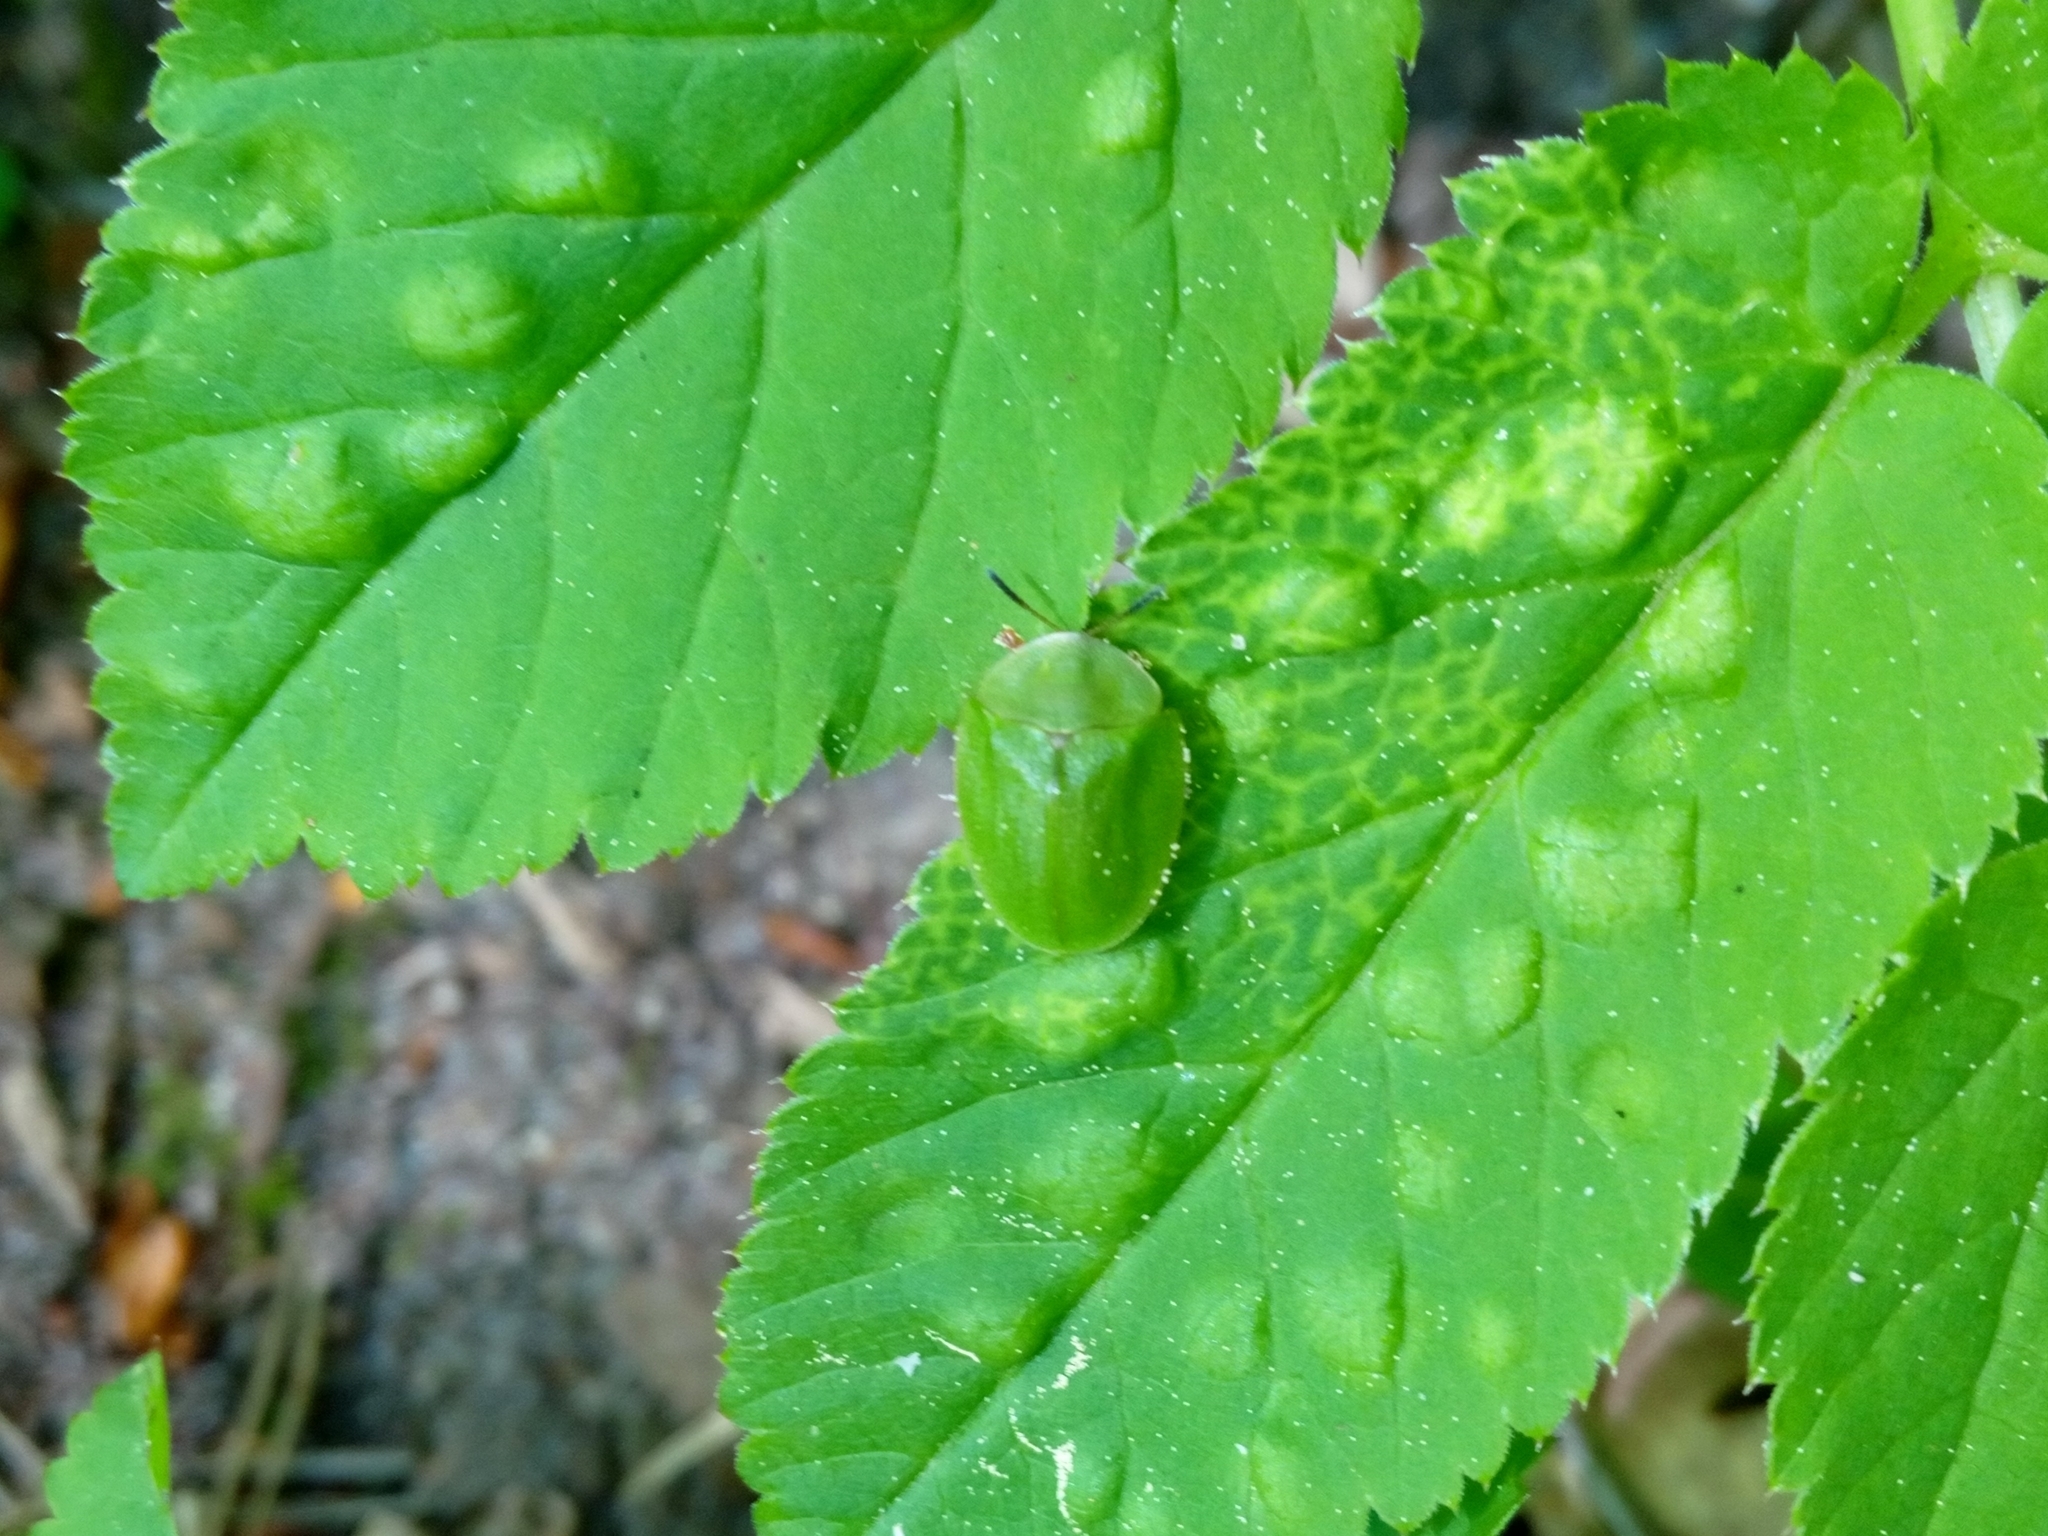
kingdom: Animalia
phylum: Arthropoda
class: Insecta
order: Coleoptera
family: Chrysomelidae
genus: Cassida
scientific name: Cassida viridis
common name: Green tortoise beetle
